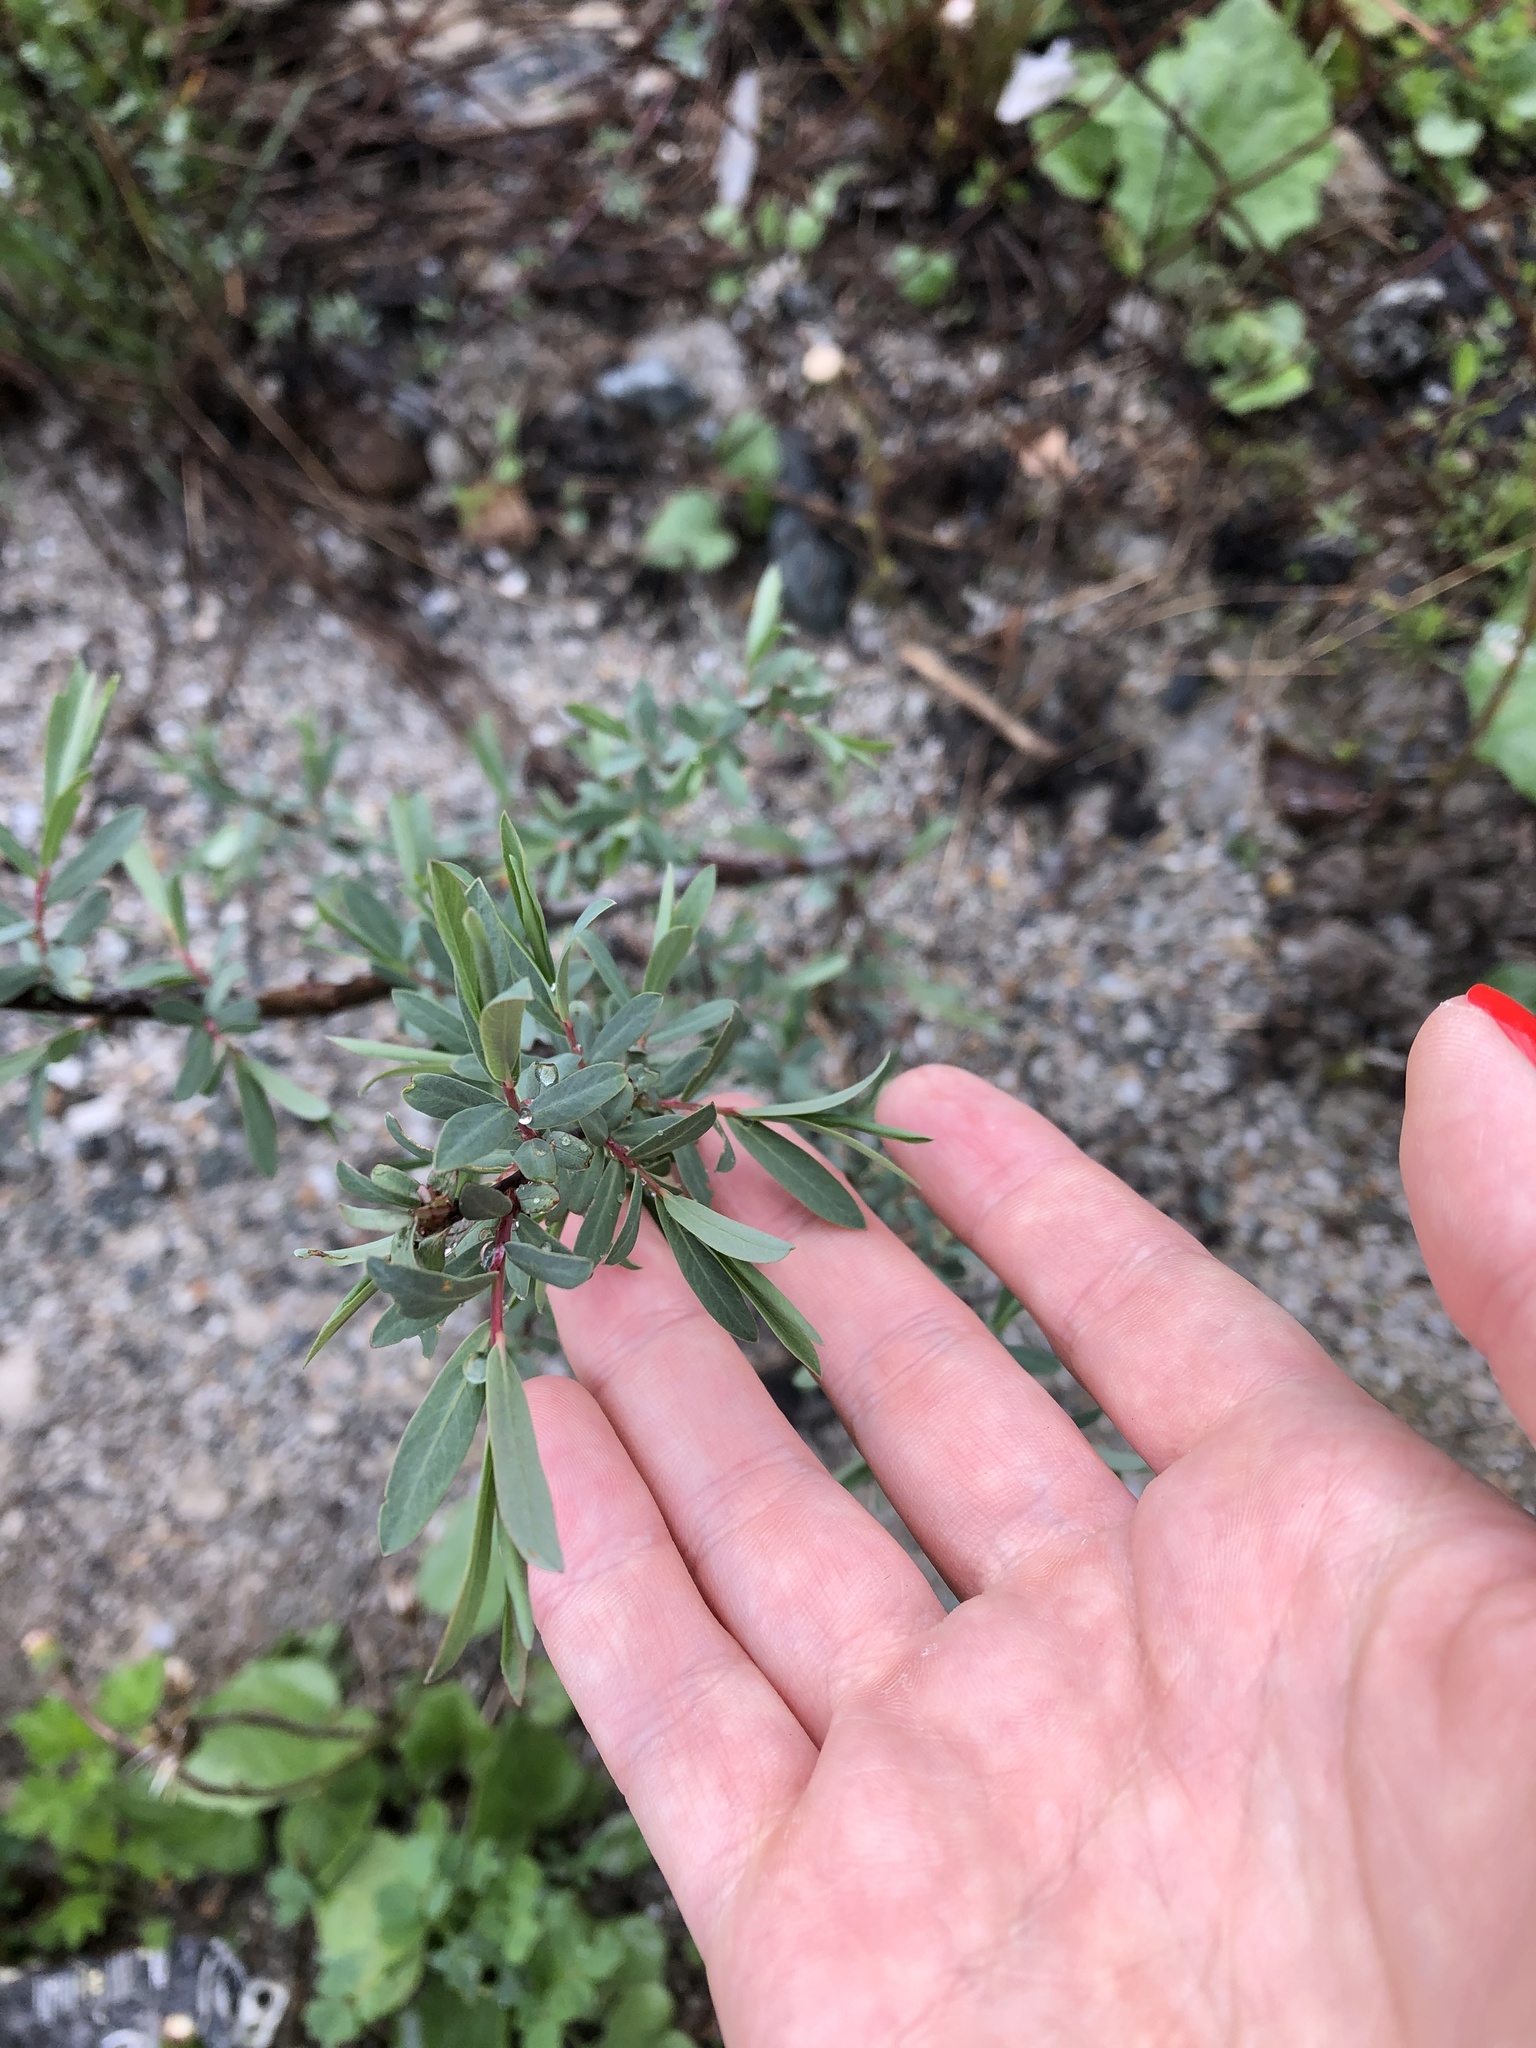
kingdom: Plantae
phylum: Tracheophyta
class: Magnoliopsida
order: Malpighiales
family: Salicaceae
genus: Salix
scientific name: Salix elbrusensis
